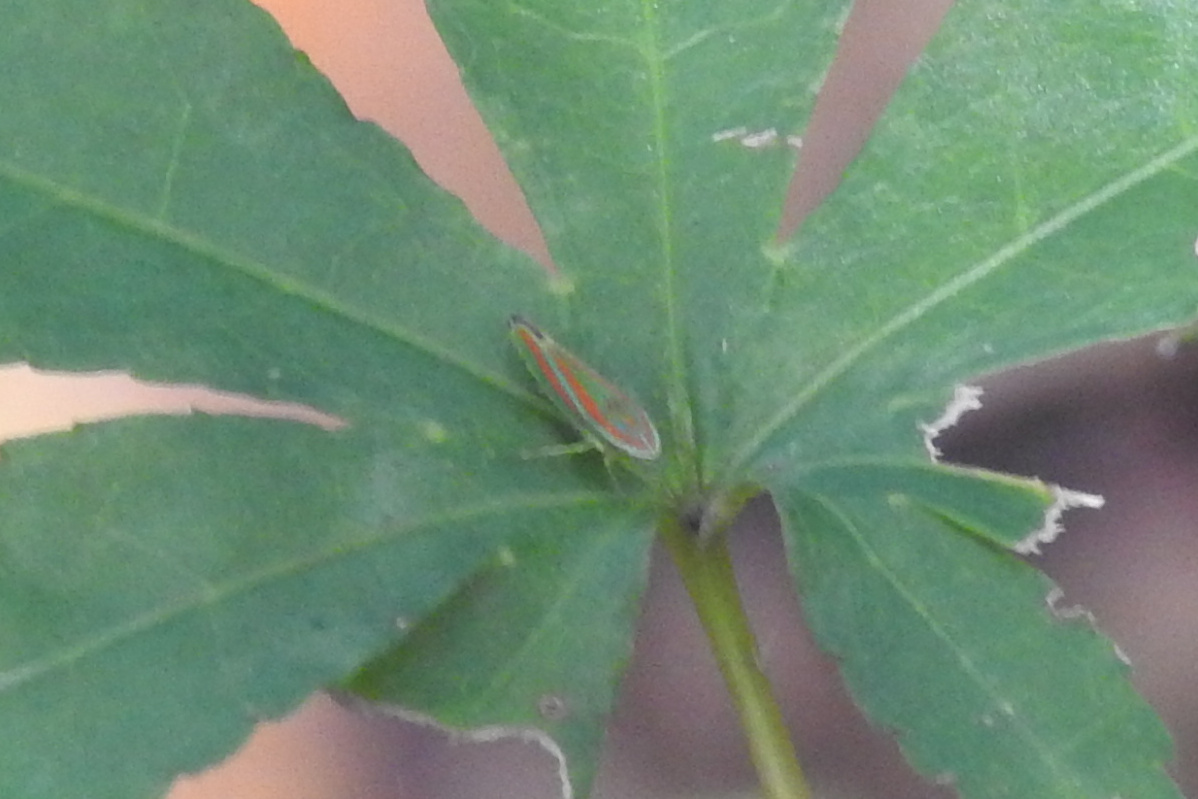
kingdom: Animalia
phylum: Arthropoda
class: Insecta
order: Hemiptera
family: Cicadellidae
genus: Graphocephala
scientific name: Graphocephala versuta
